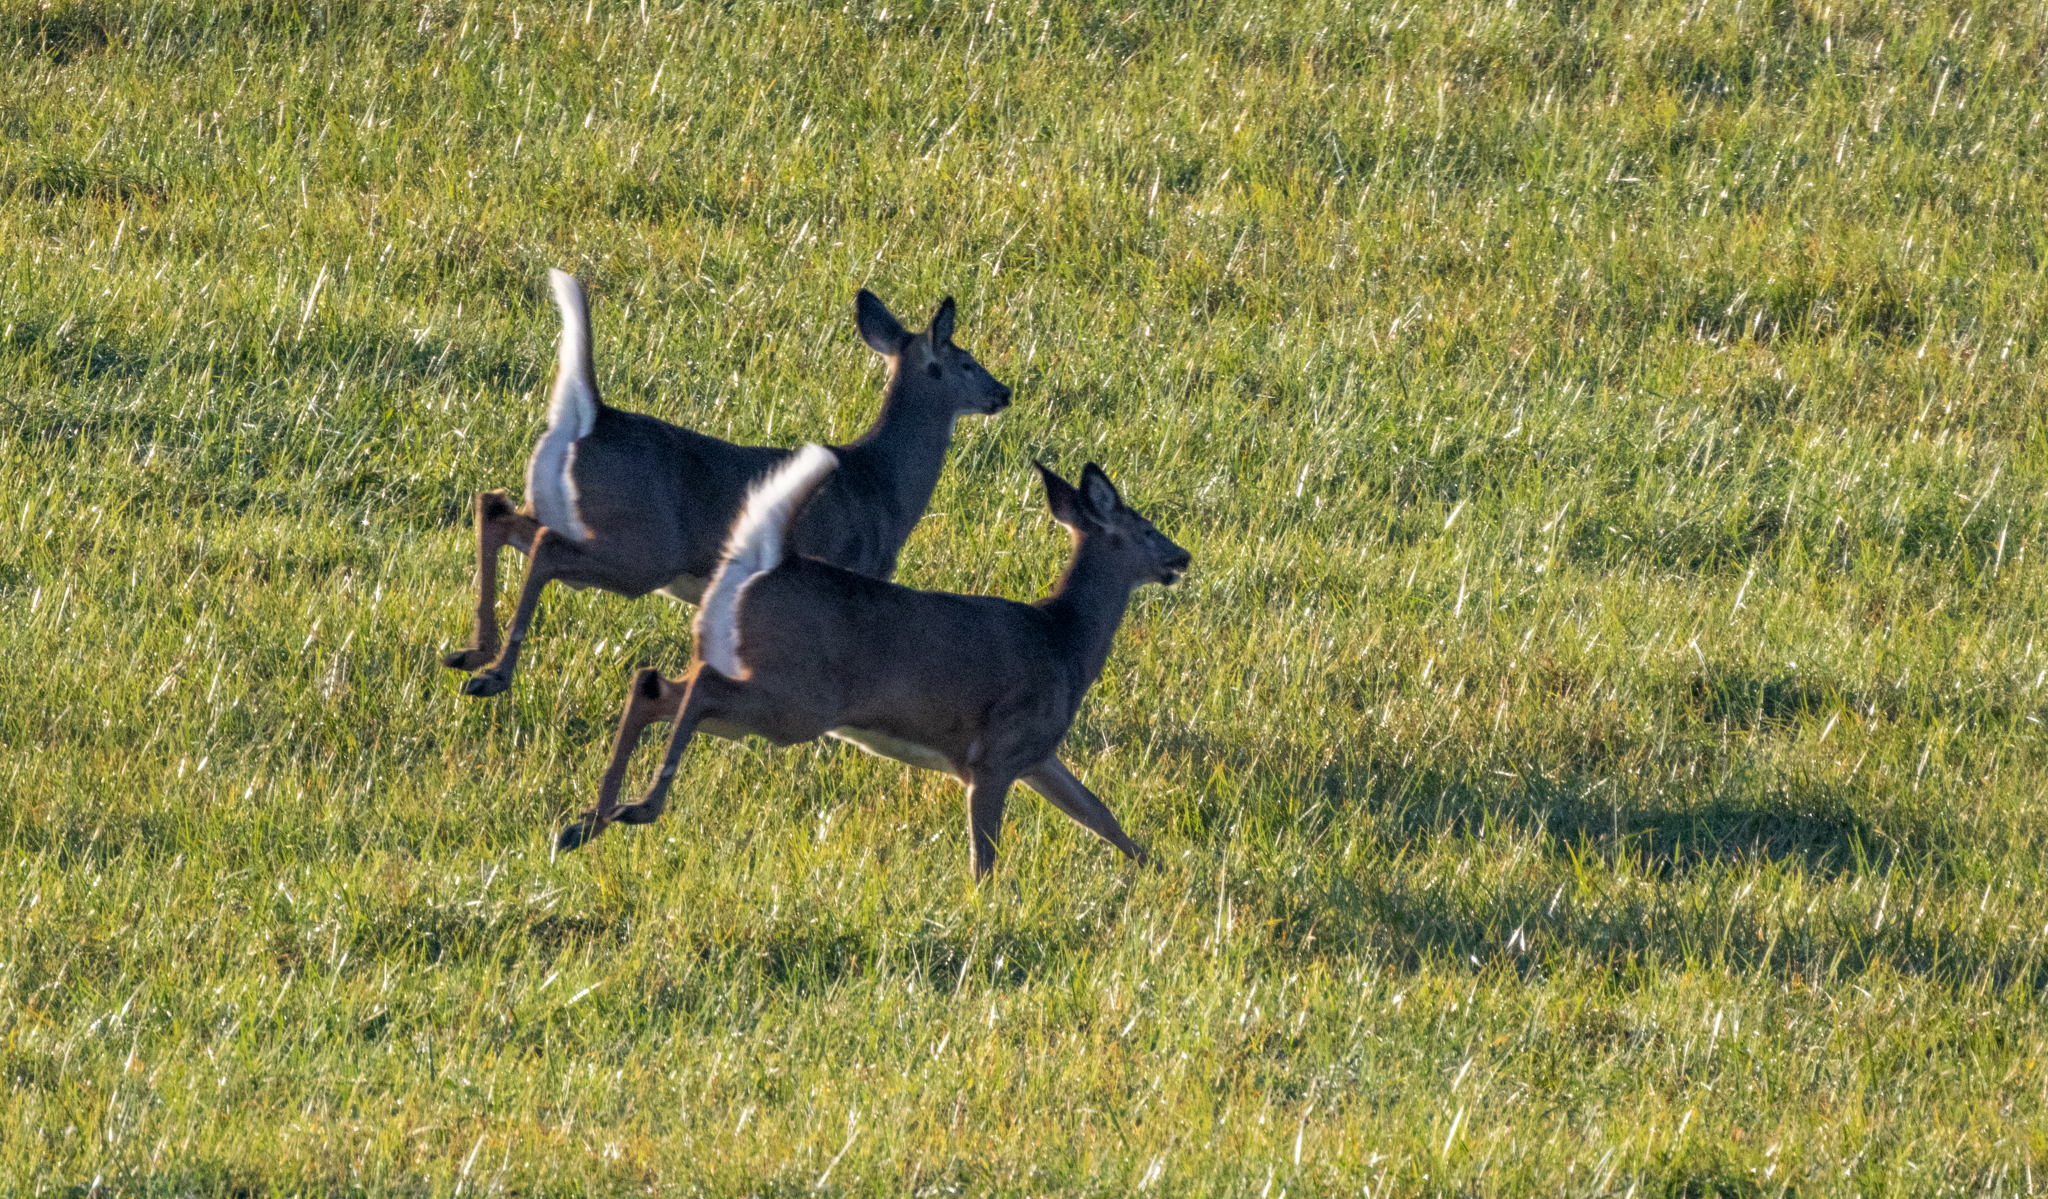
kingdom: Animalia
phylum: Chordata
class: Mammalia
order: Artiodactyla
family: Cervidae
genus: Odocoileus
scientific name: Odocoileus virginianus
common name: White-tailed deer
